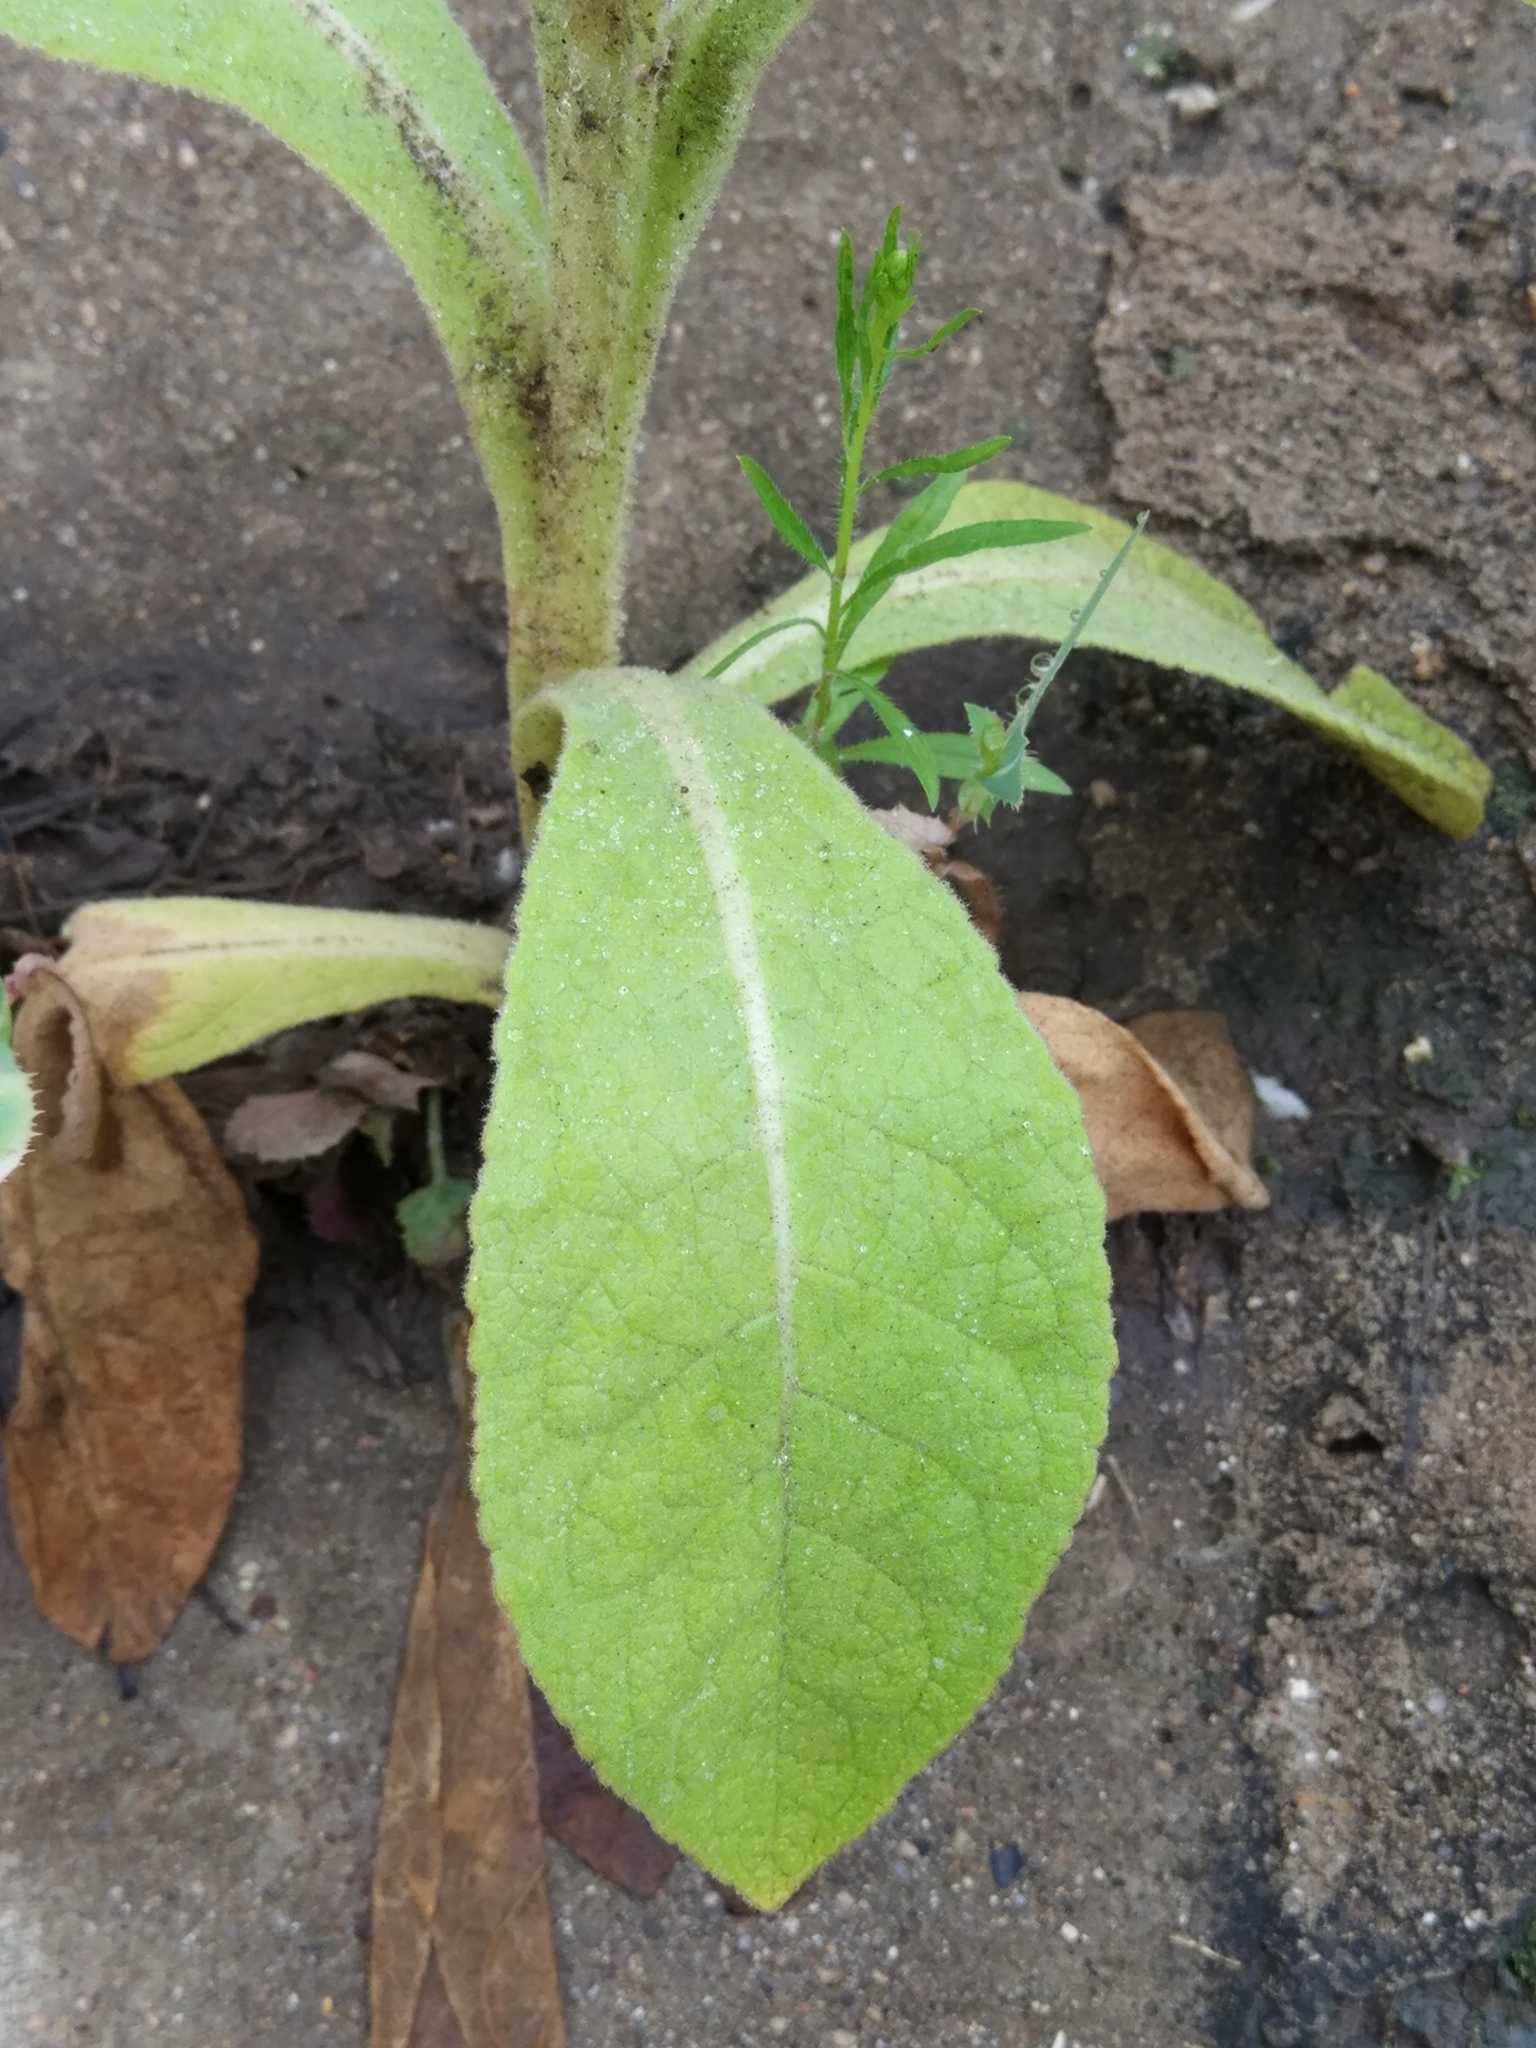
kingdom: Plantae
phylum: Tracheophyta
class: Magnoliopsida
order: Lamiales
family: Scrophulariaceae
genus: Verbascum
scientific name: Verbascum thapsus
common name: Common mullein
